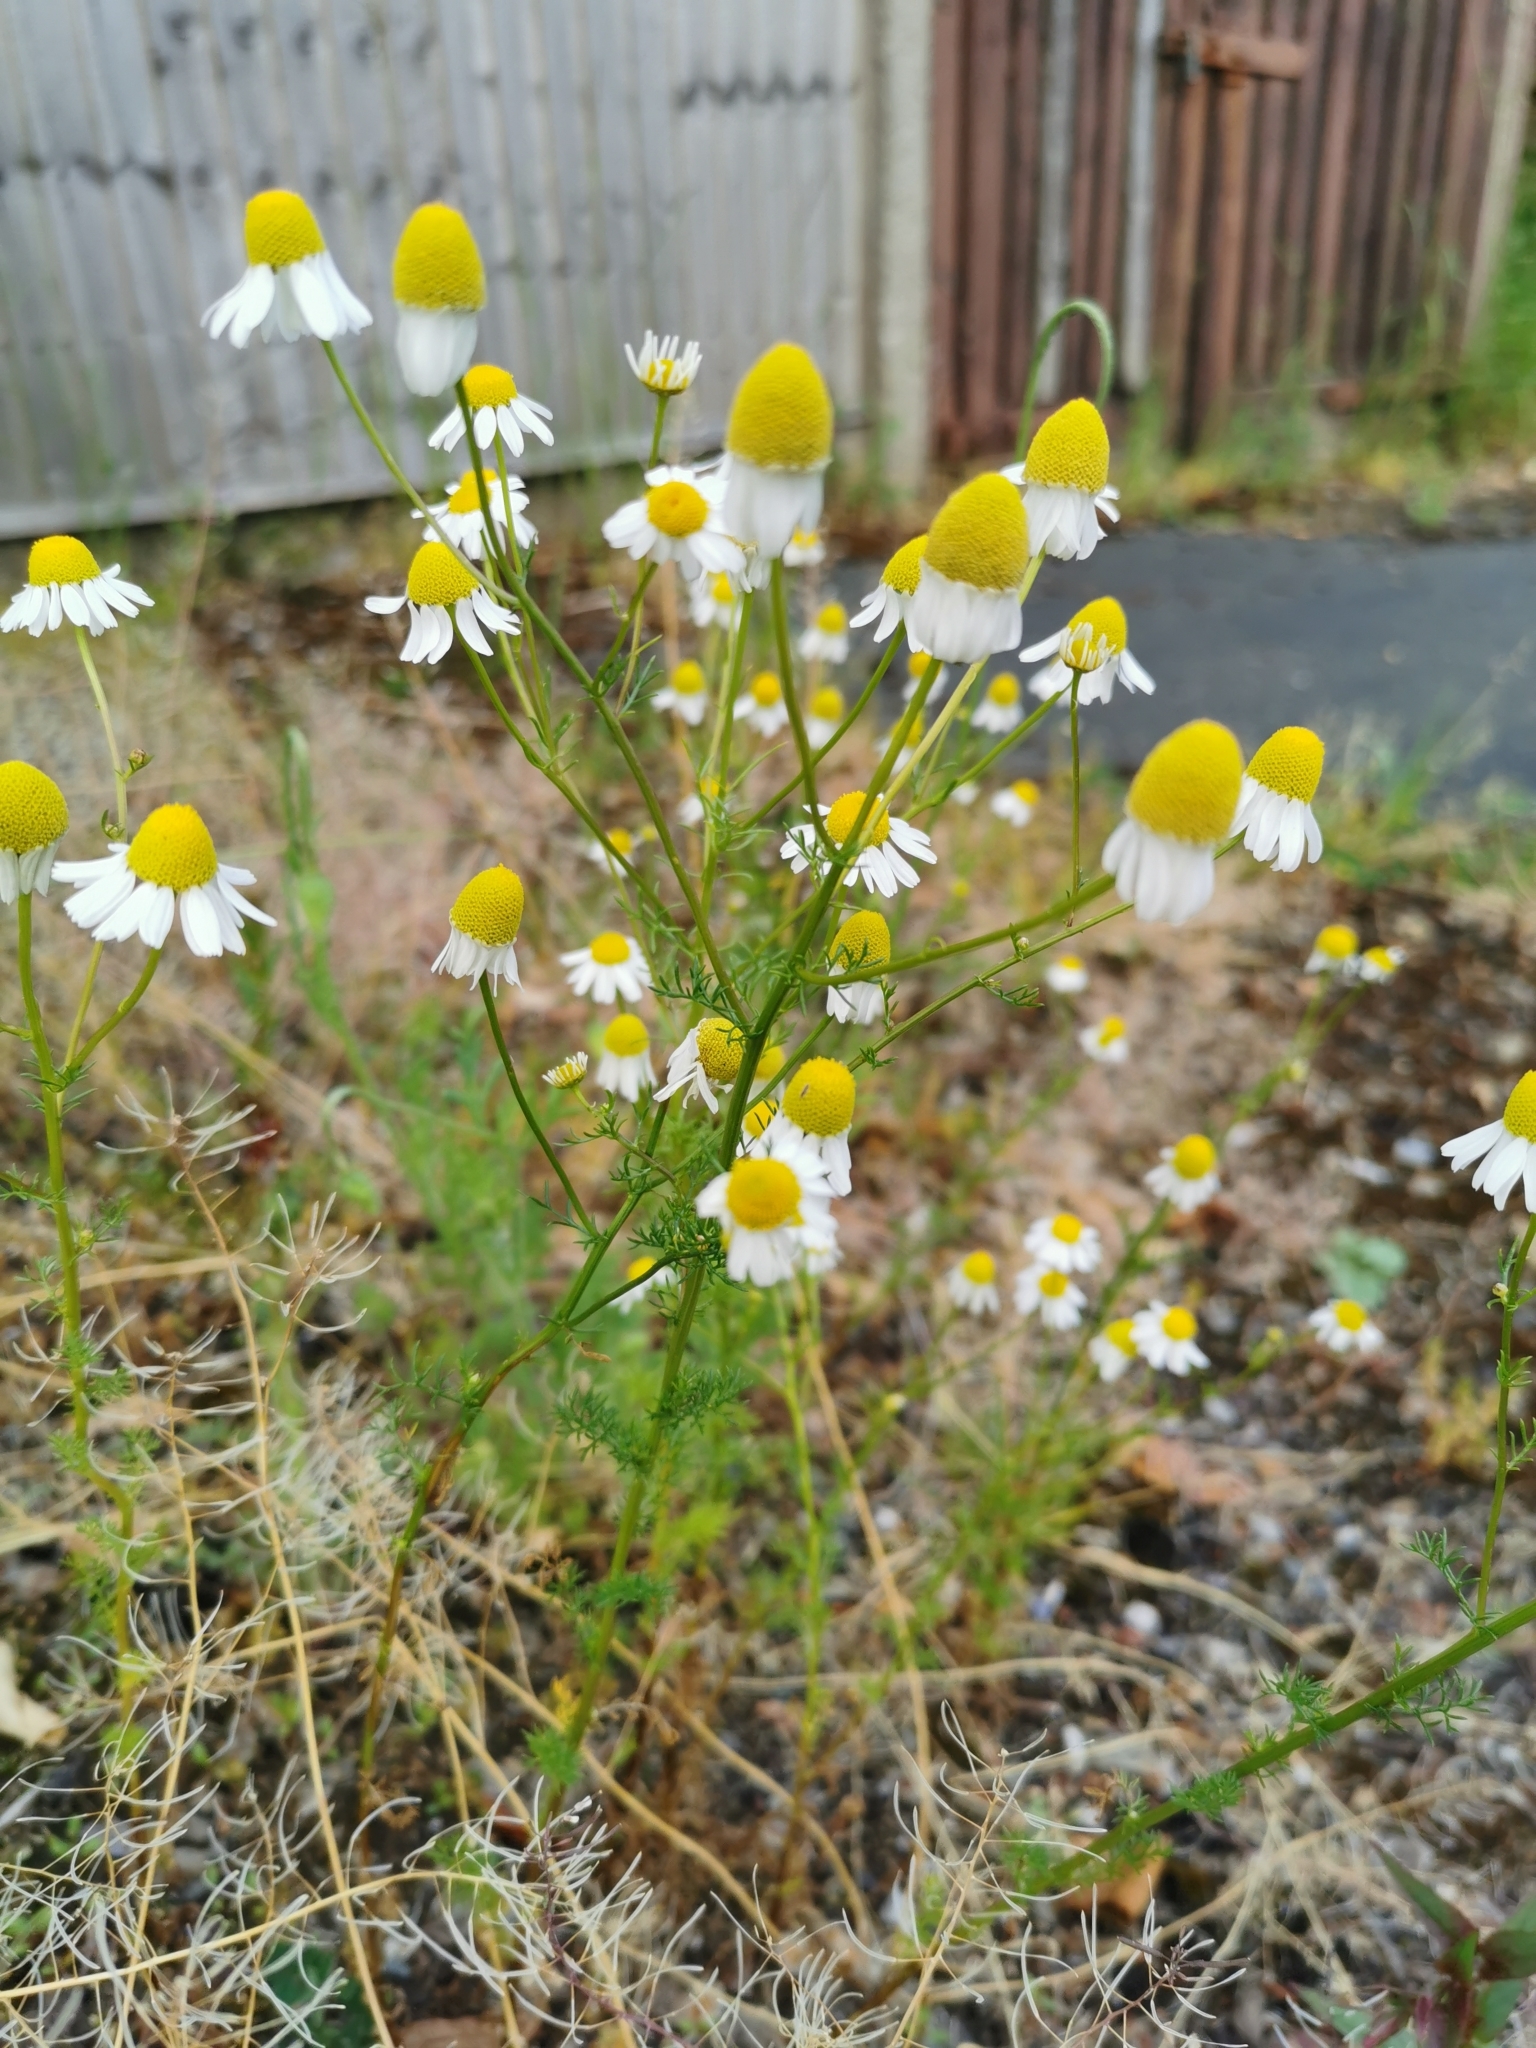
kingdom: Plantae
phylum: Tracheophyta
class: Magnoliopsida
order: Asterales
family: Asteraceae
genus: Matricaria
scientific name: Matricaria chamomilla
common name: Scented mayweed
